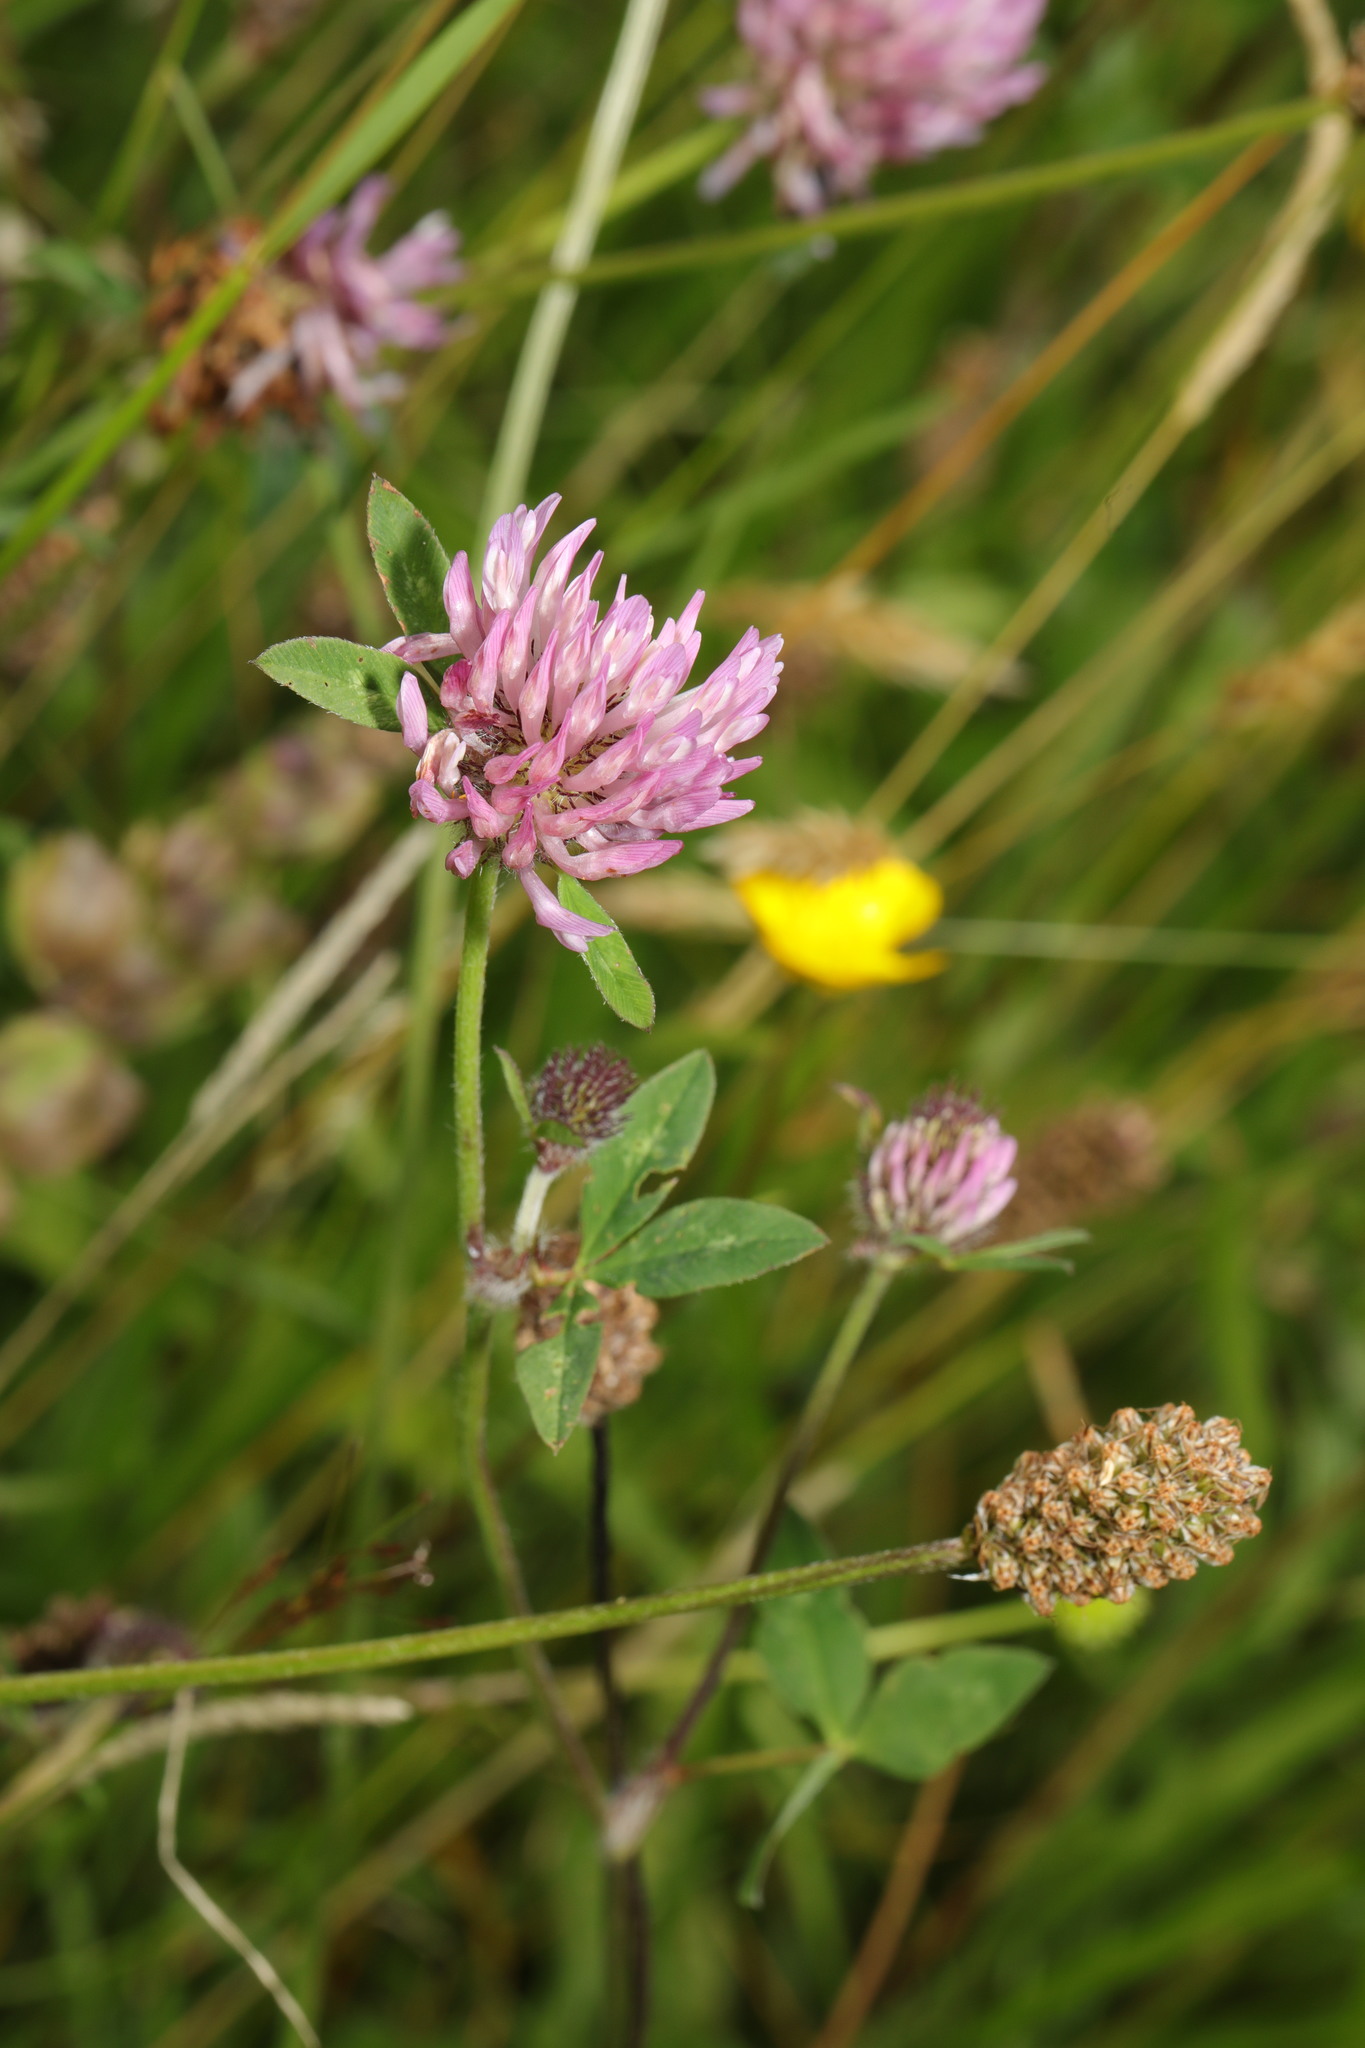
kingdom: Plantae
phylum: Tracheophyta
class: Magnoliopsida
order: Fabales
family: Fabaceae
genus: Trifolium
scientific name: Trifolium pratense
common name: Red clover
